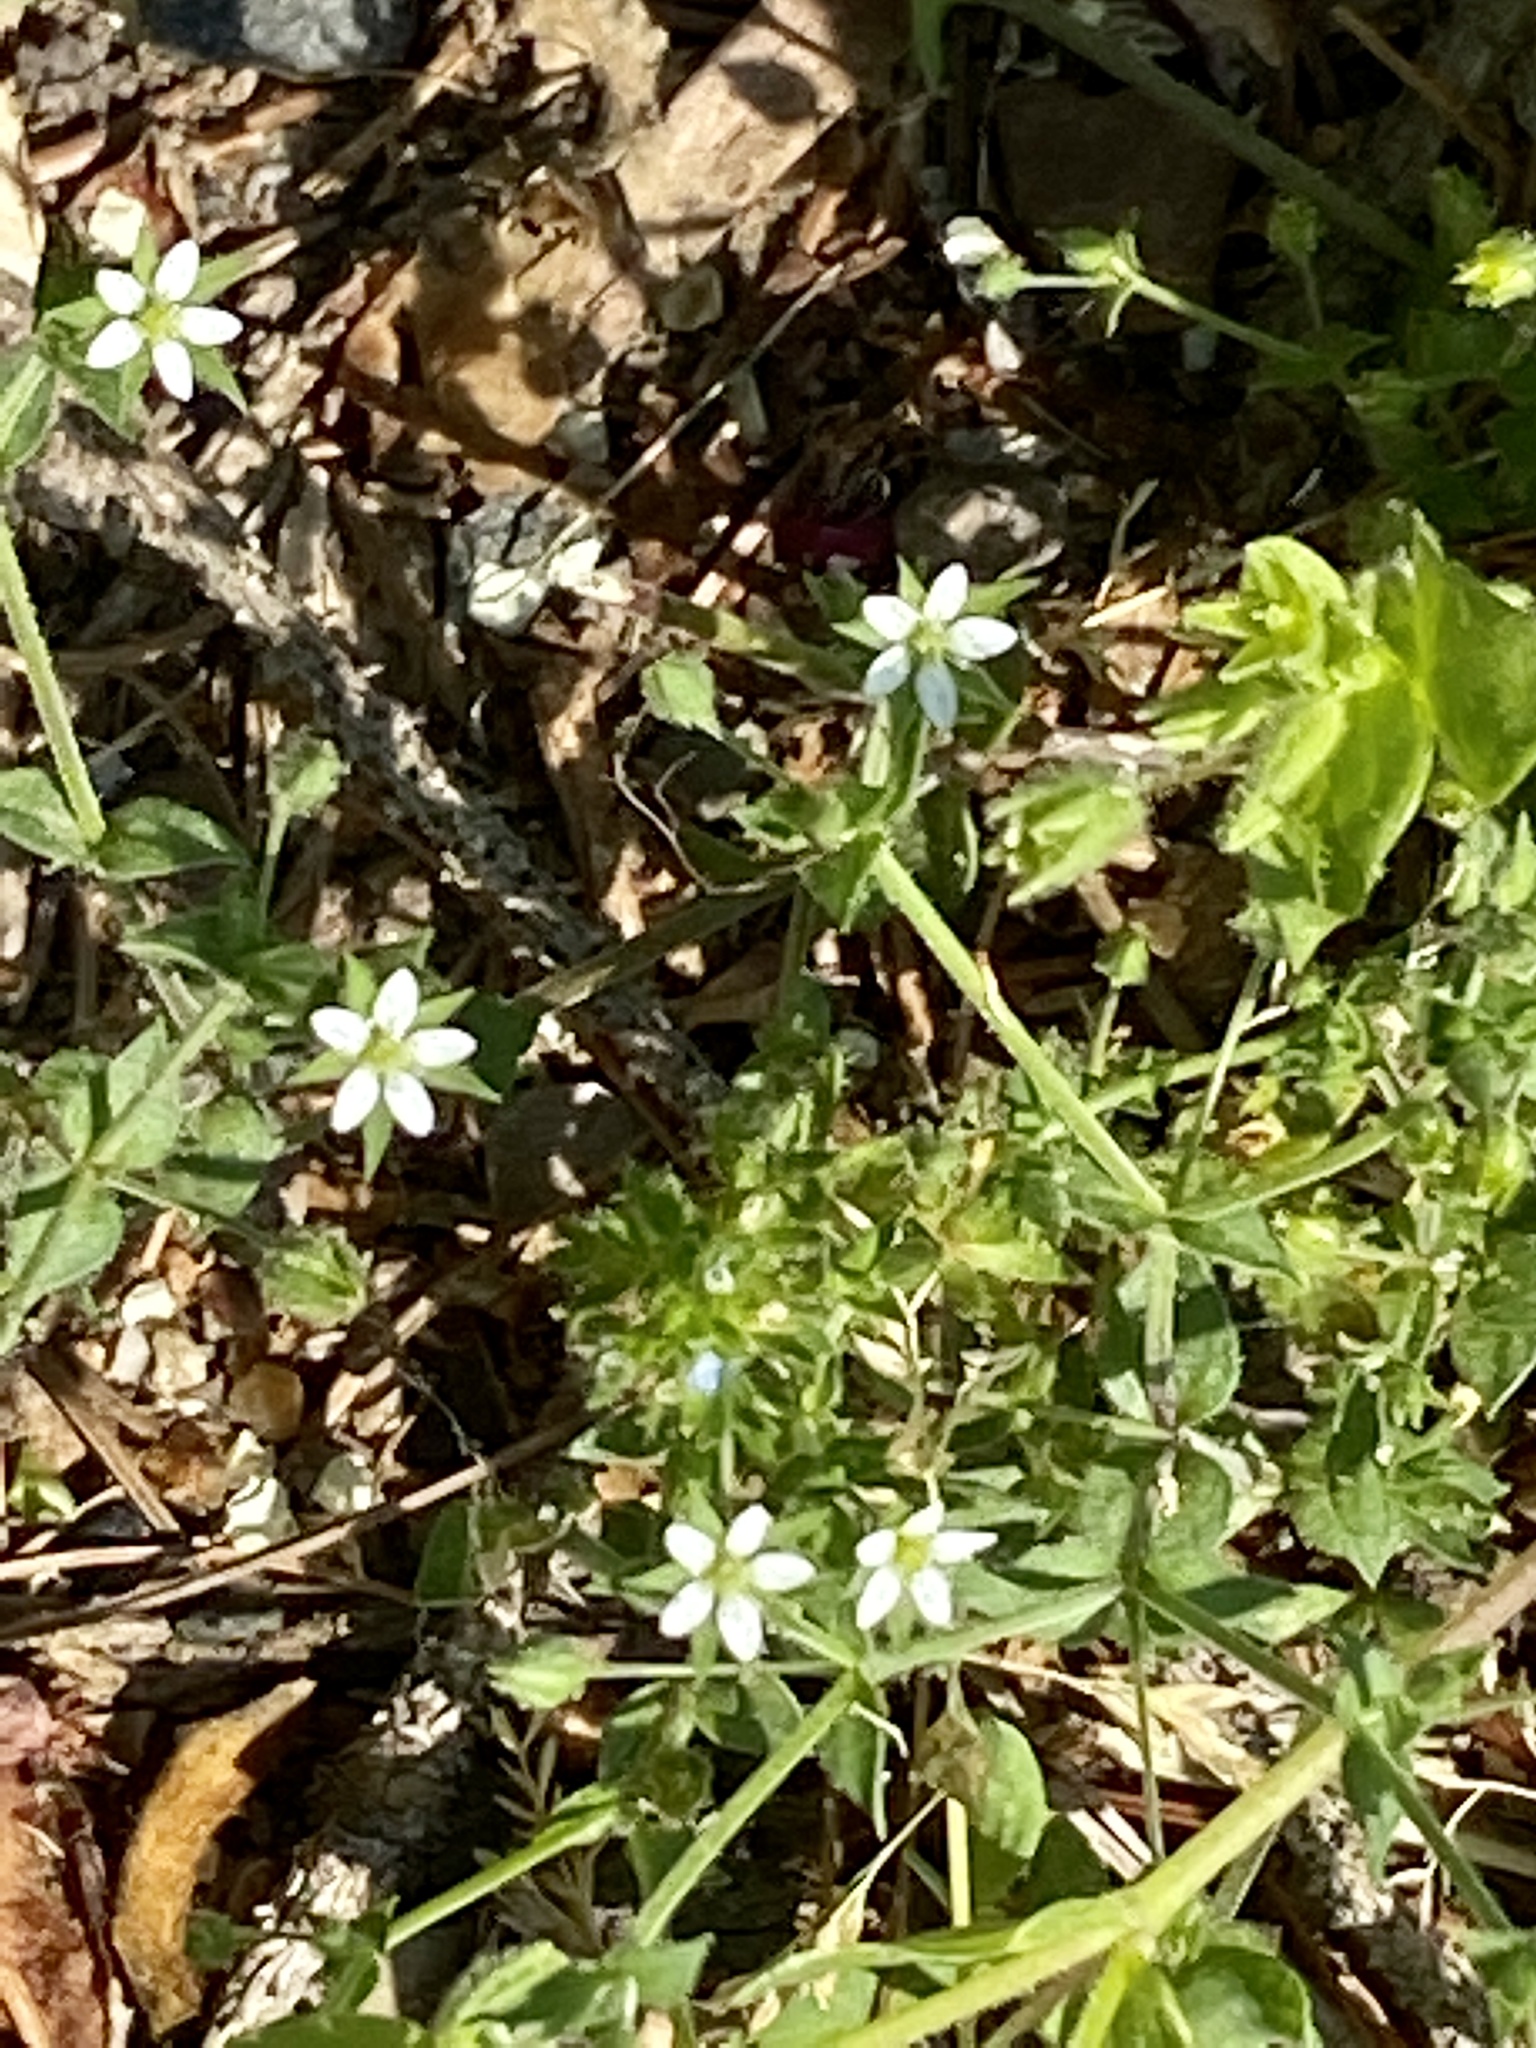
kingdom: Plantae
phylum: Tracheophyta
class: Magnoliopsida
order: Caryophyllales
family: Caryophyllaceae
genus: Arenaria
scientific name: Arenaria serpyllifolia
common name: Thyme-leaved sandwort
